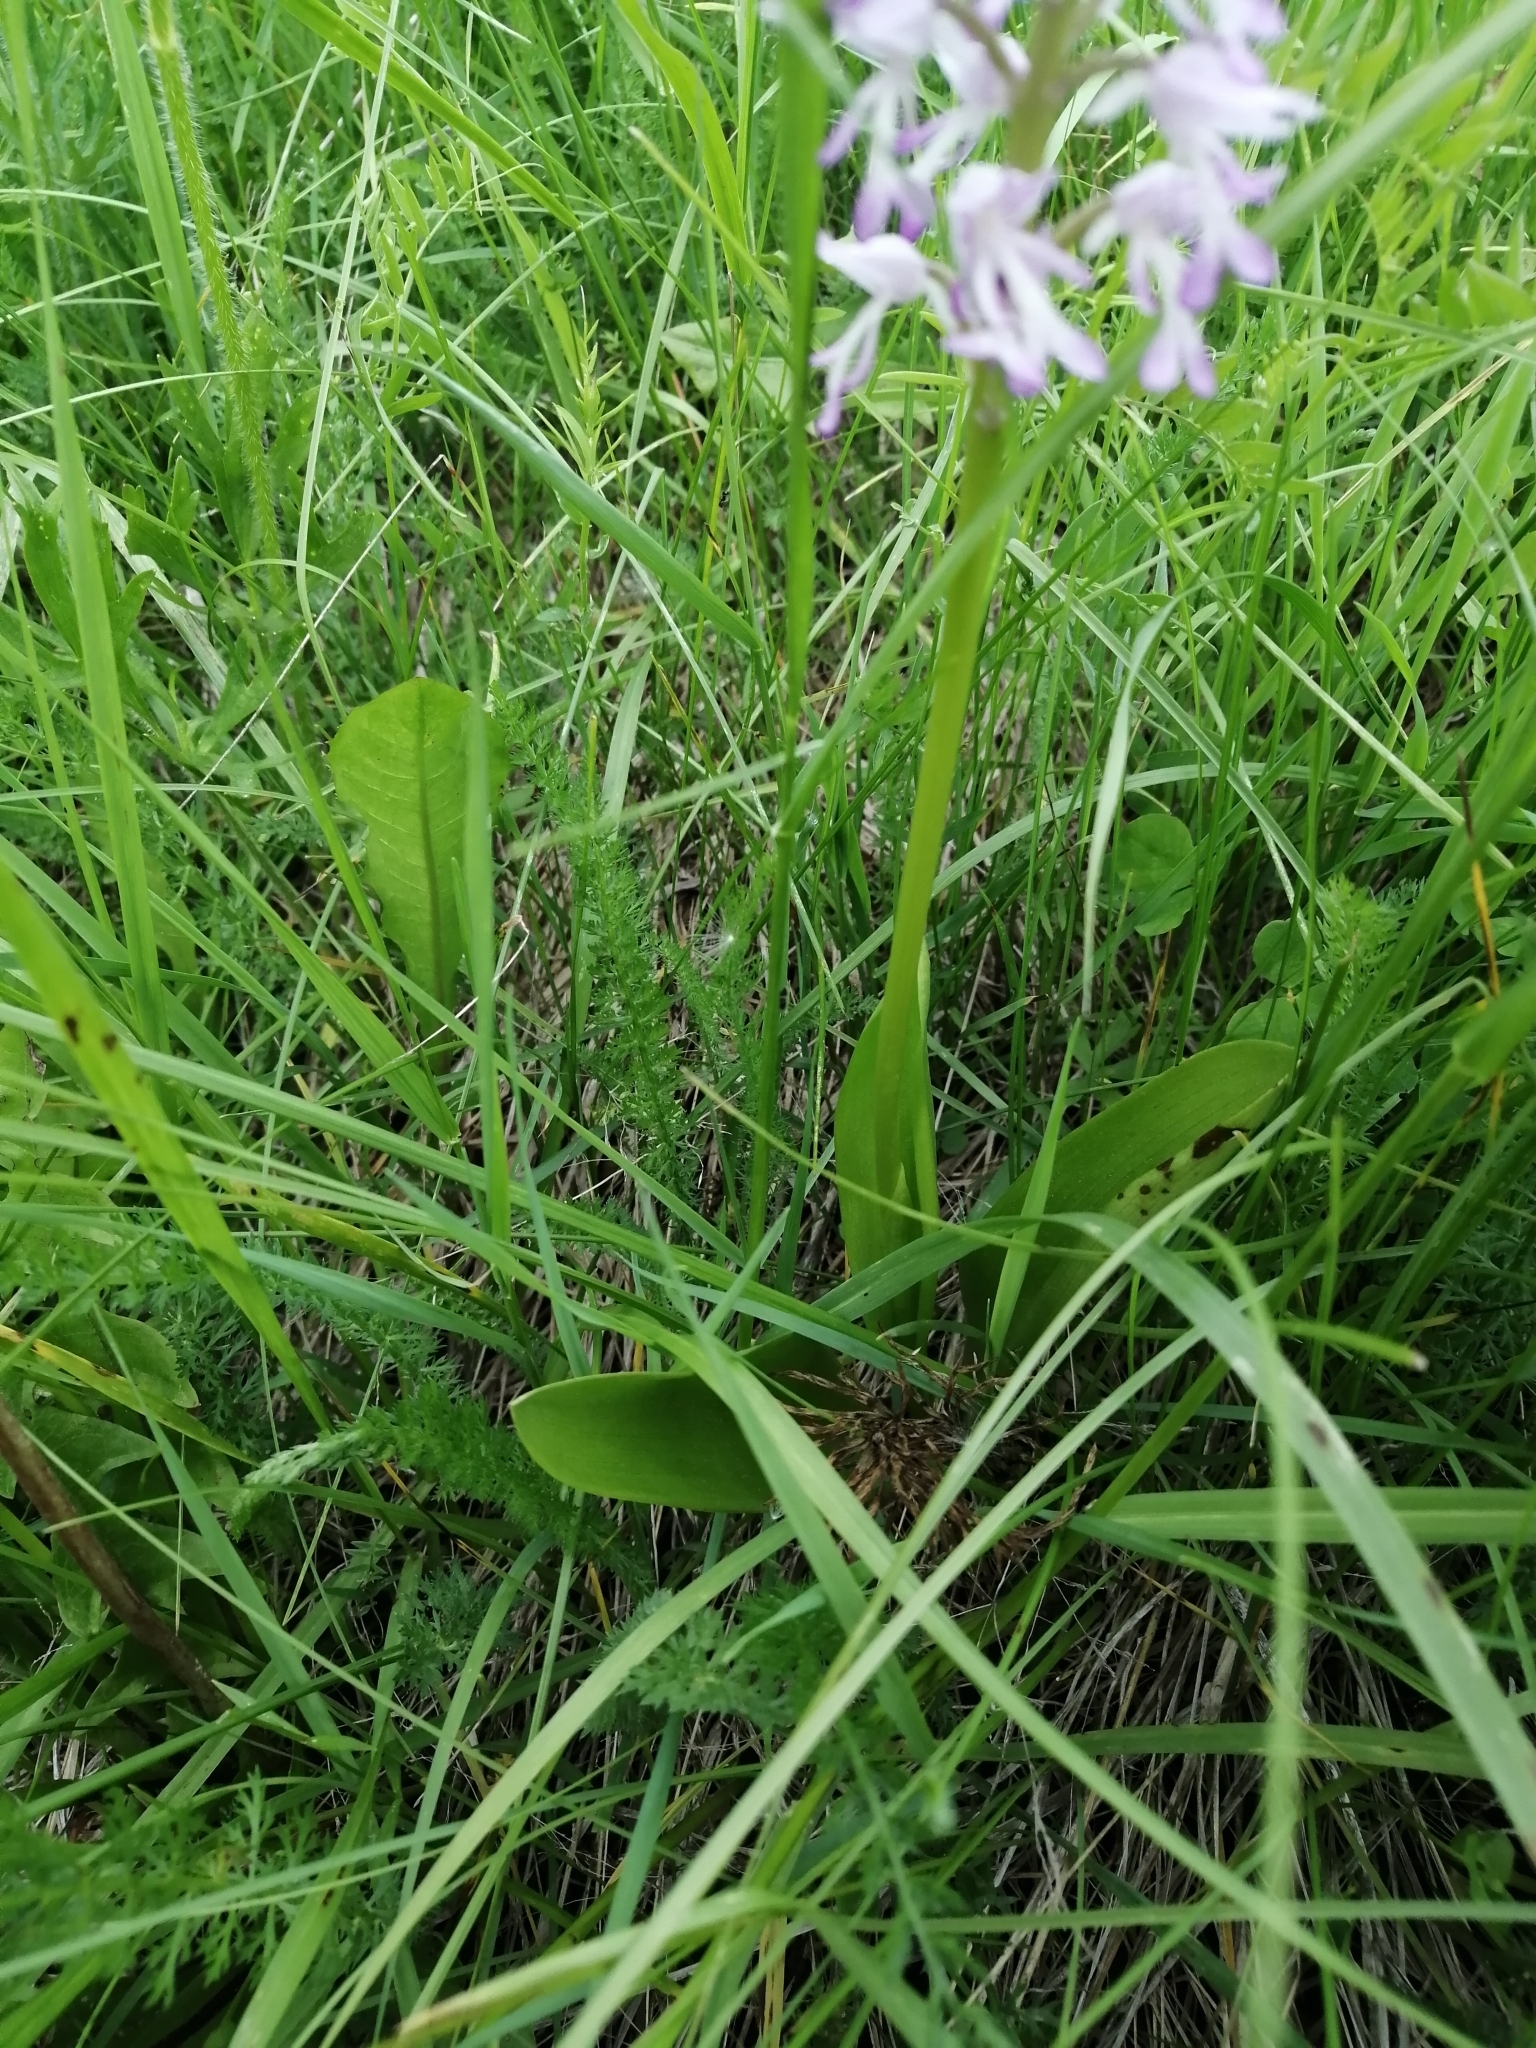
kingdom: Plantae
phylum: Tracheophyta
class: Liliopsida
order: Asparagales
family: Orchidaceae
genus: Orchis
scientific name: Orchis militaris
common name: Military orchid
